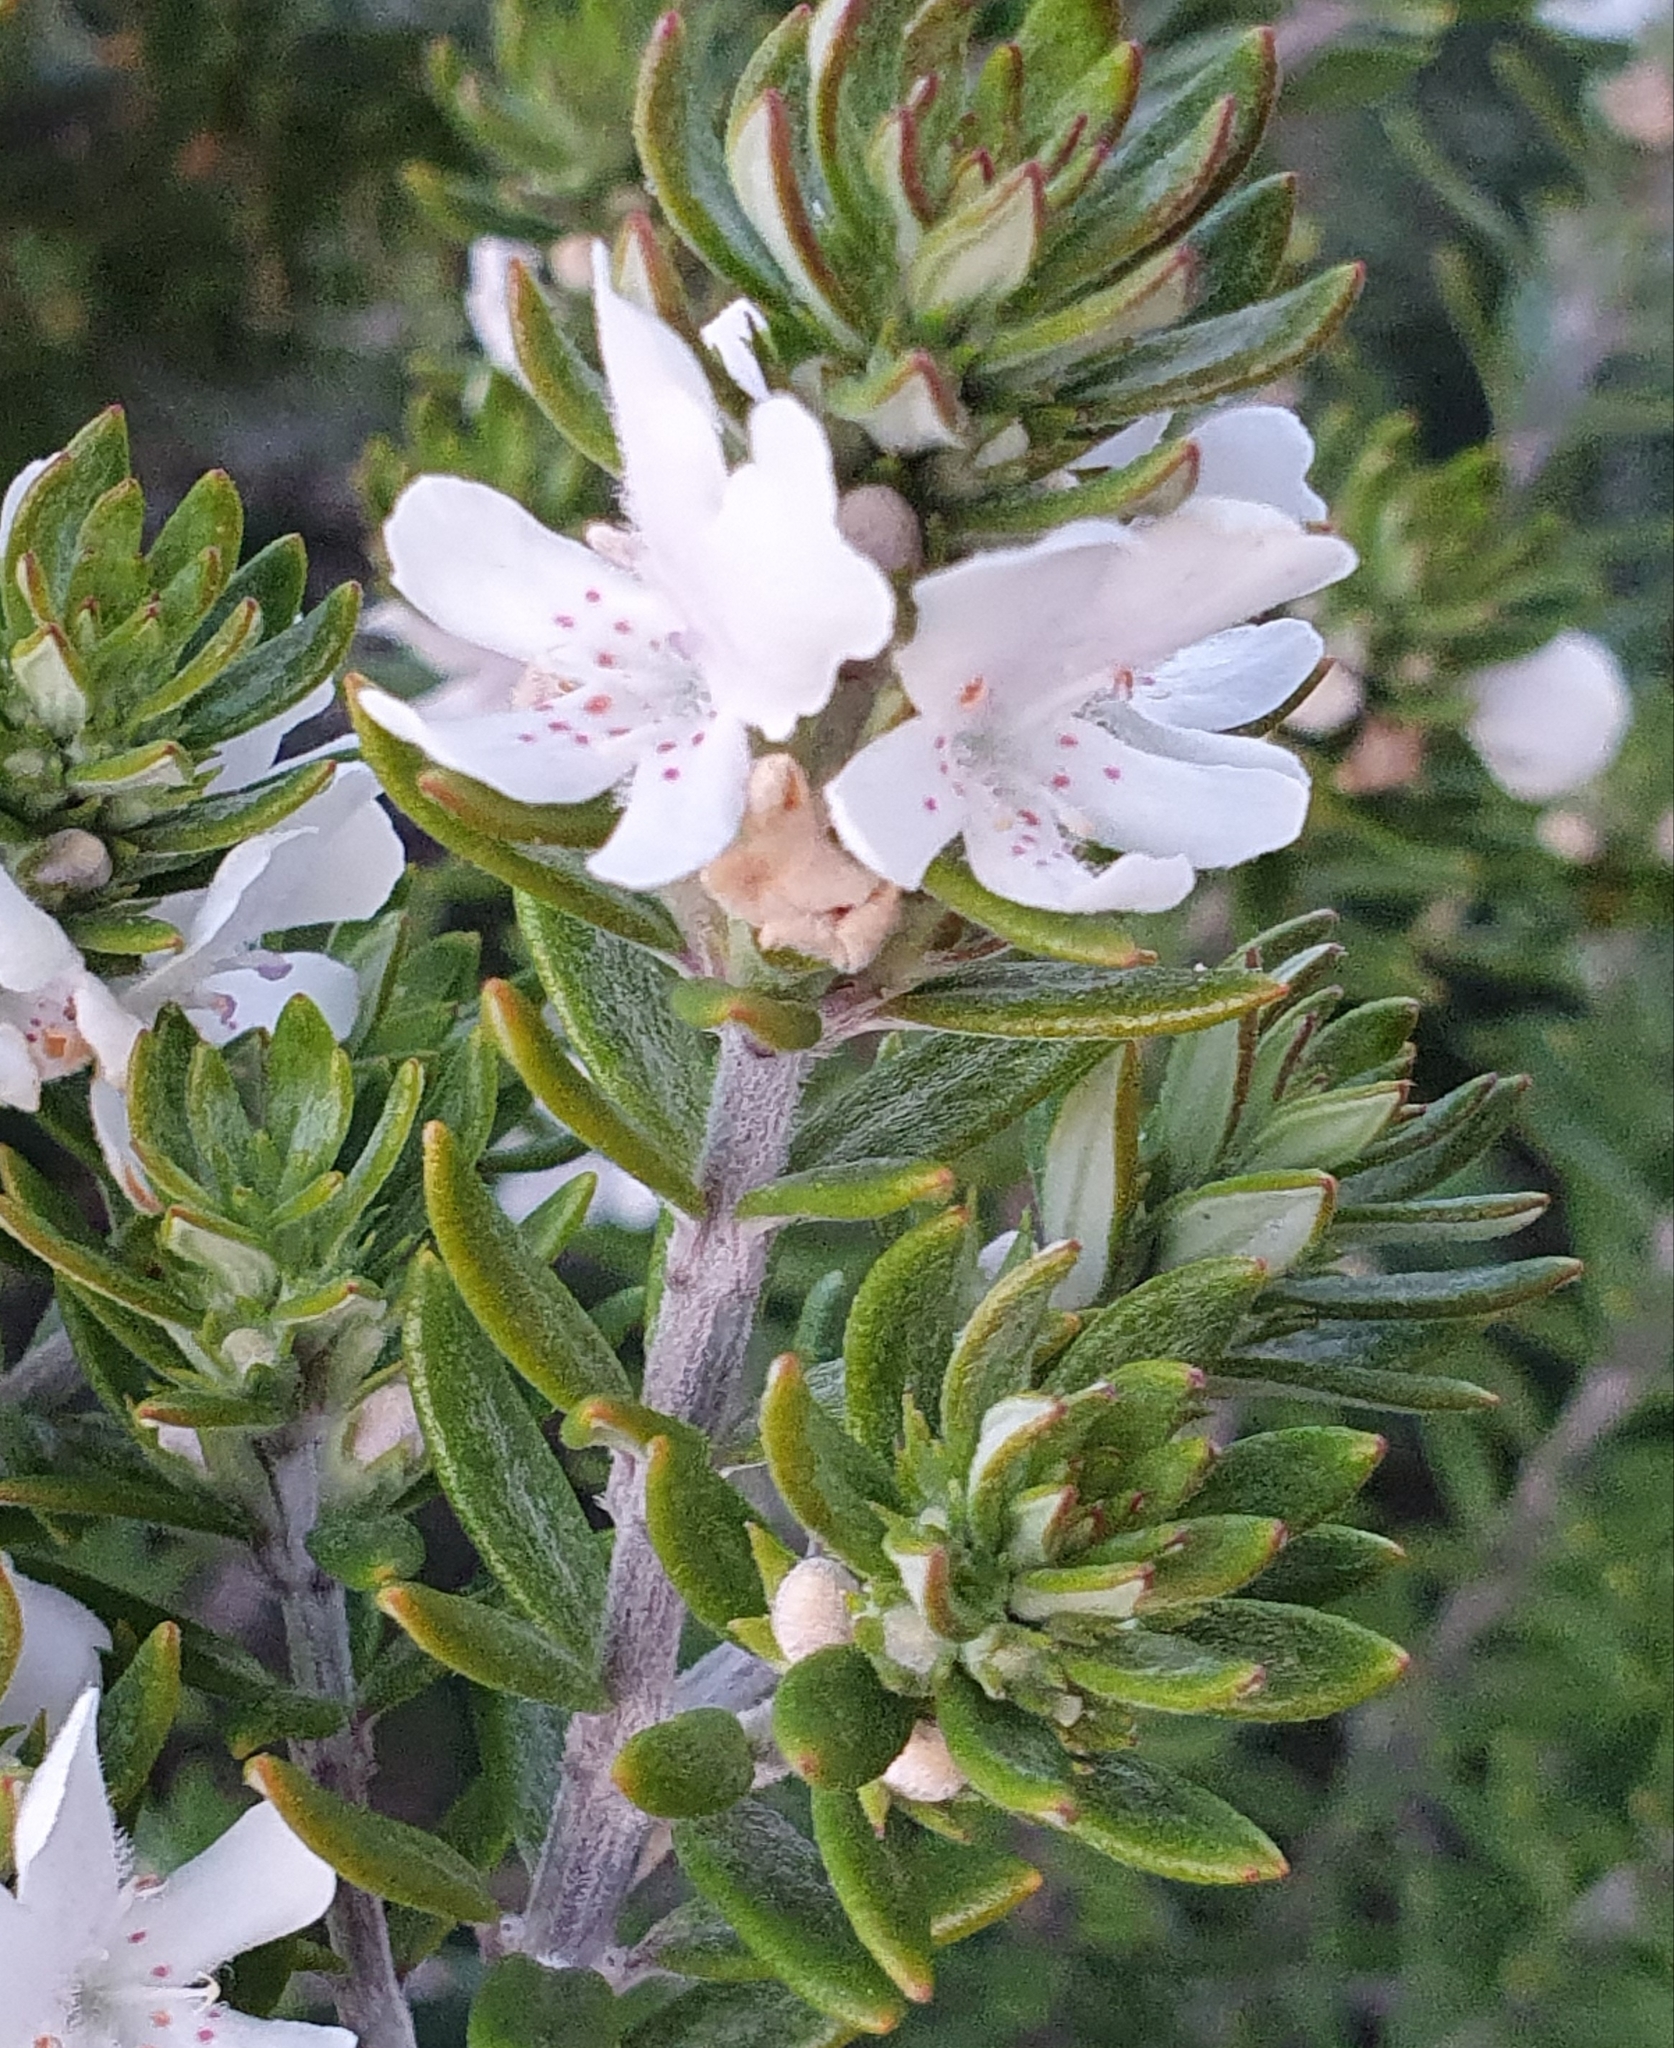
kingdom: Plantae
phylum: Tracheophyta
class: Magnoliopsida
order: Lamiales
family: Lamiaceae
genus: Westringia
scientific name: Westringia fruticosa
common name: Coastal-rosemary
